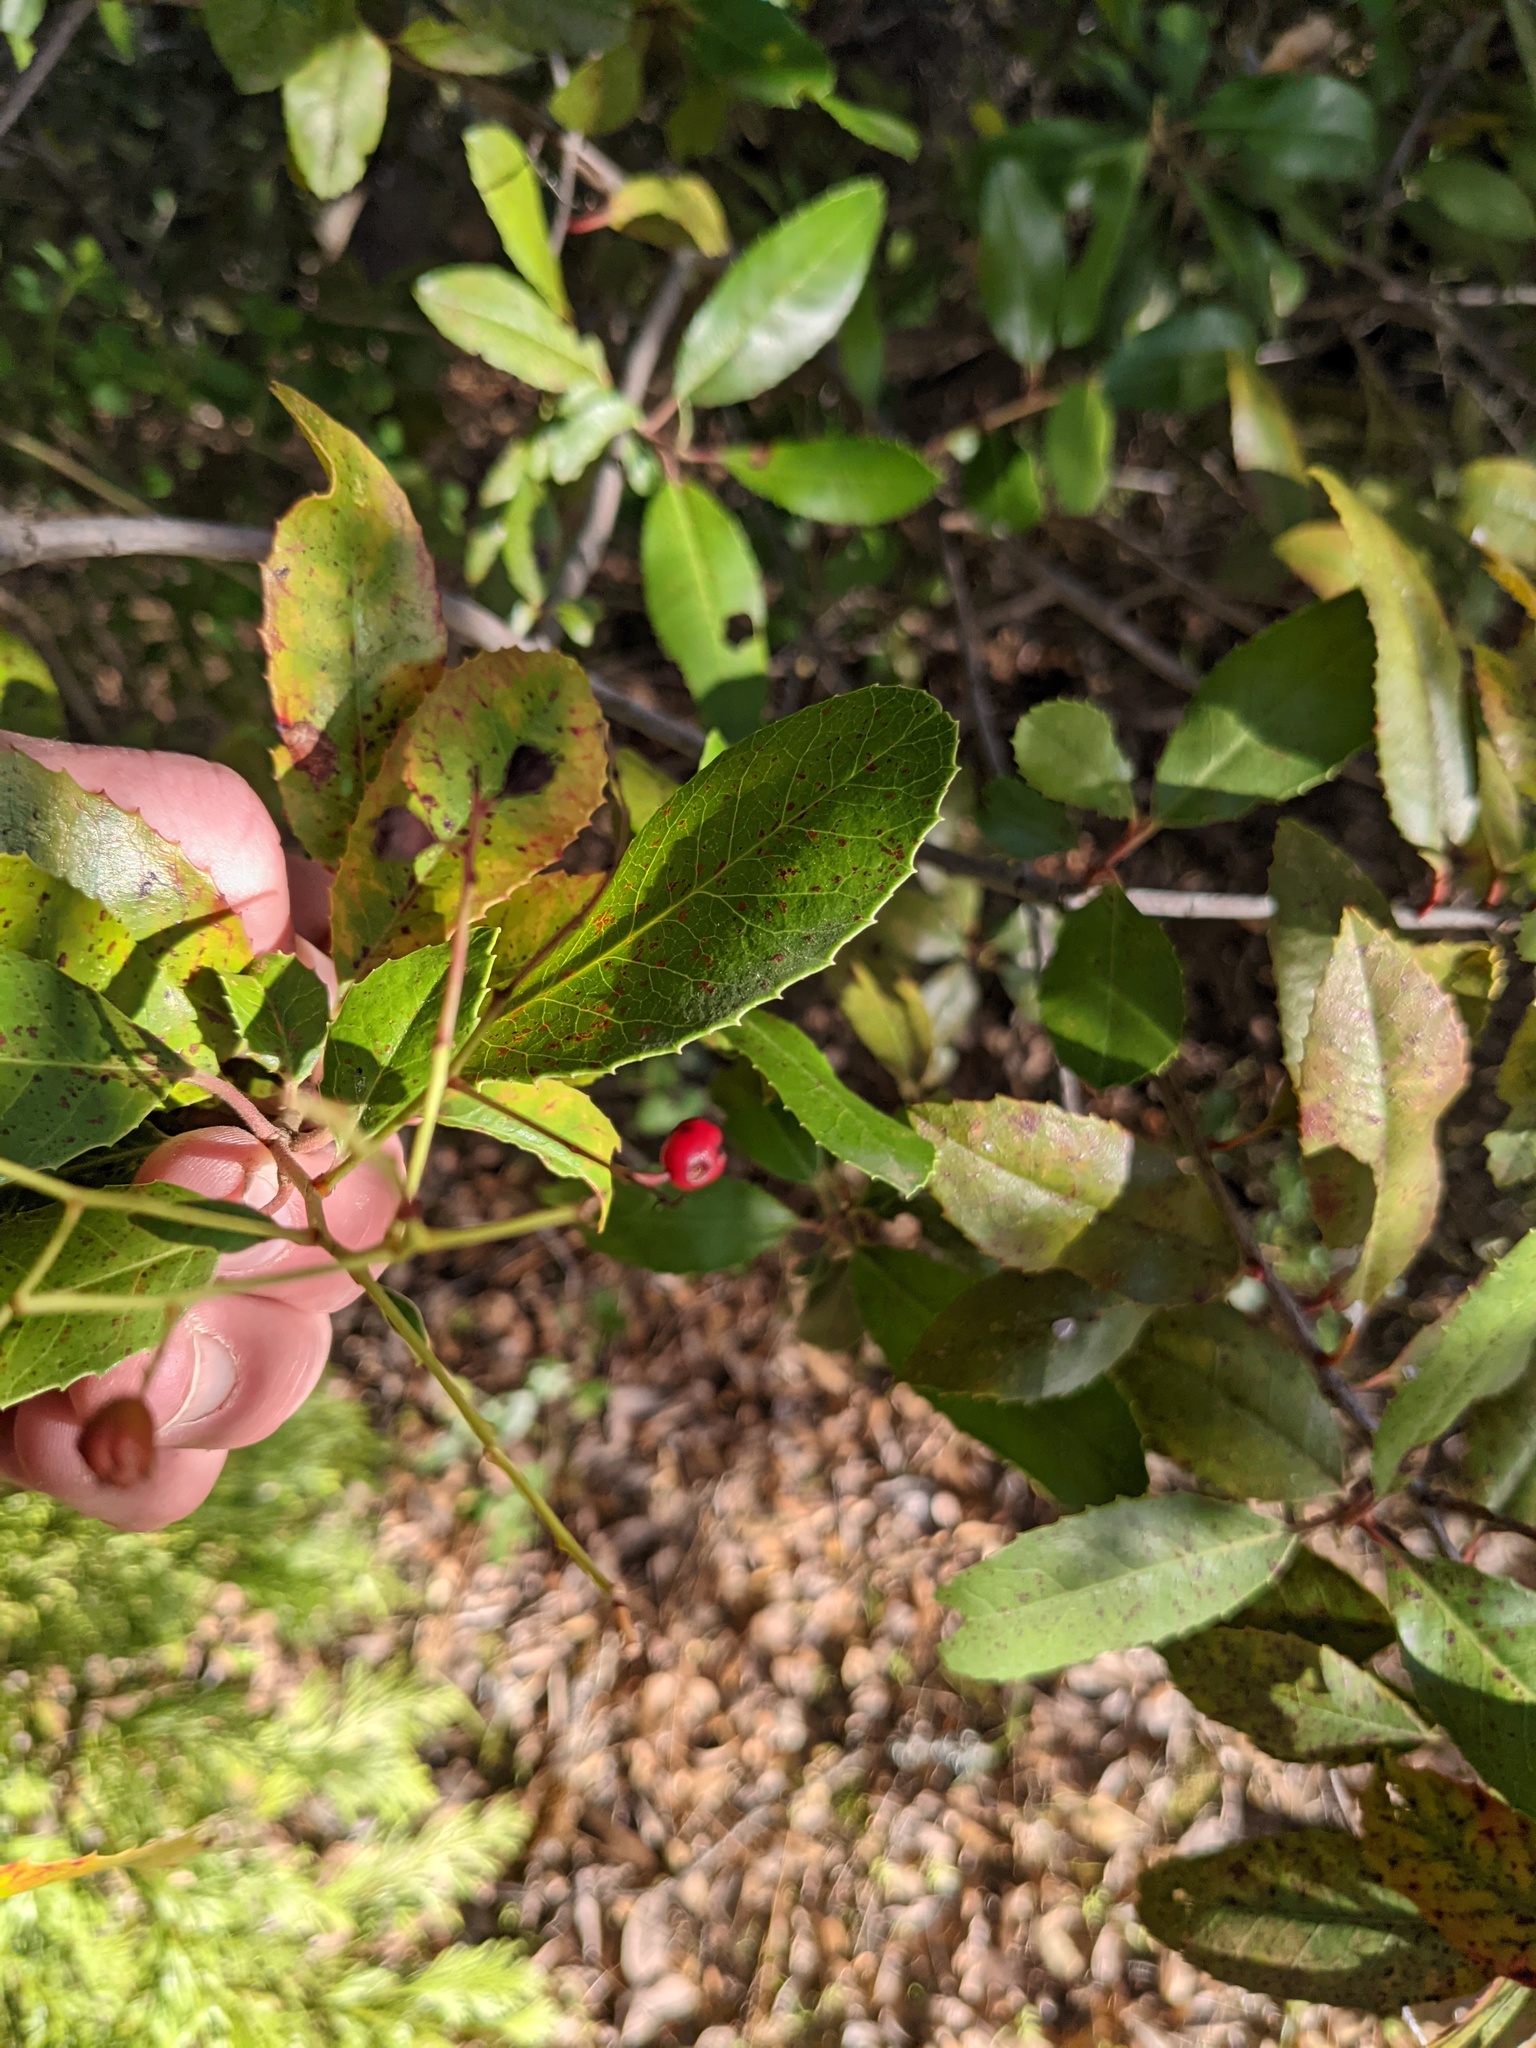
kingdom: Plantae
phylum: Tracheophyta
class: Magnoliopsida
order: Rosales
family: Rosaceae
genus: Heteromeles
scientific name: Heteromeles arbutifolia
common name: California-holly
